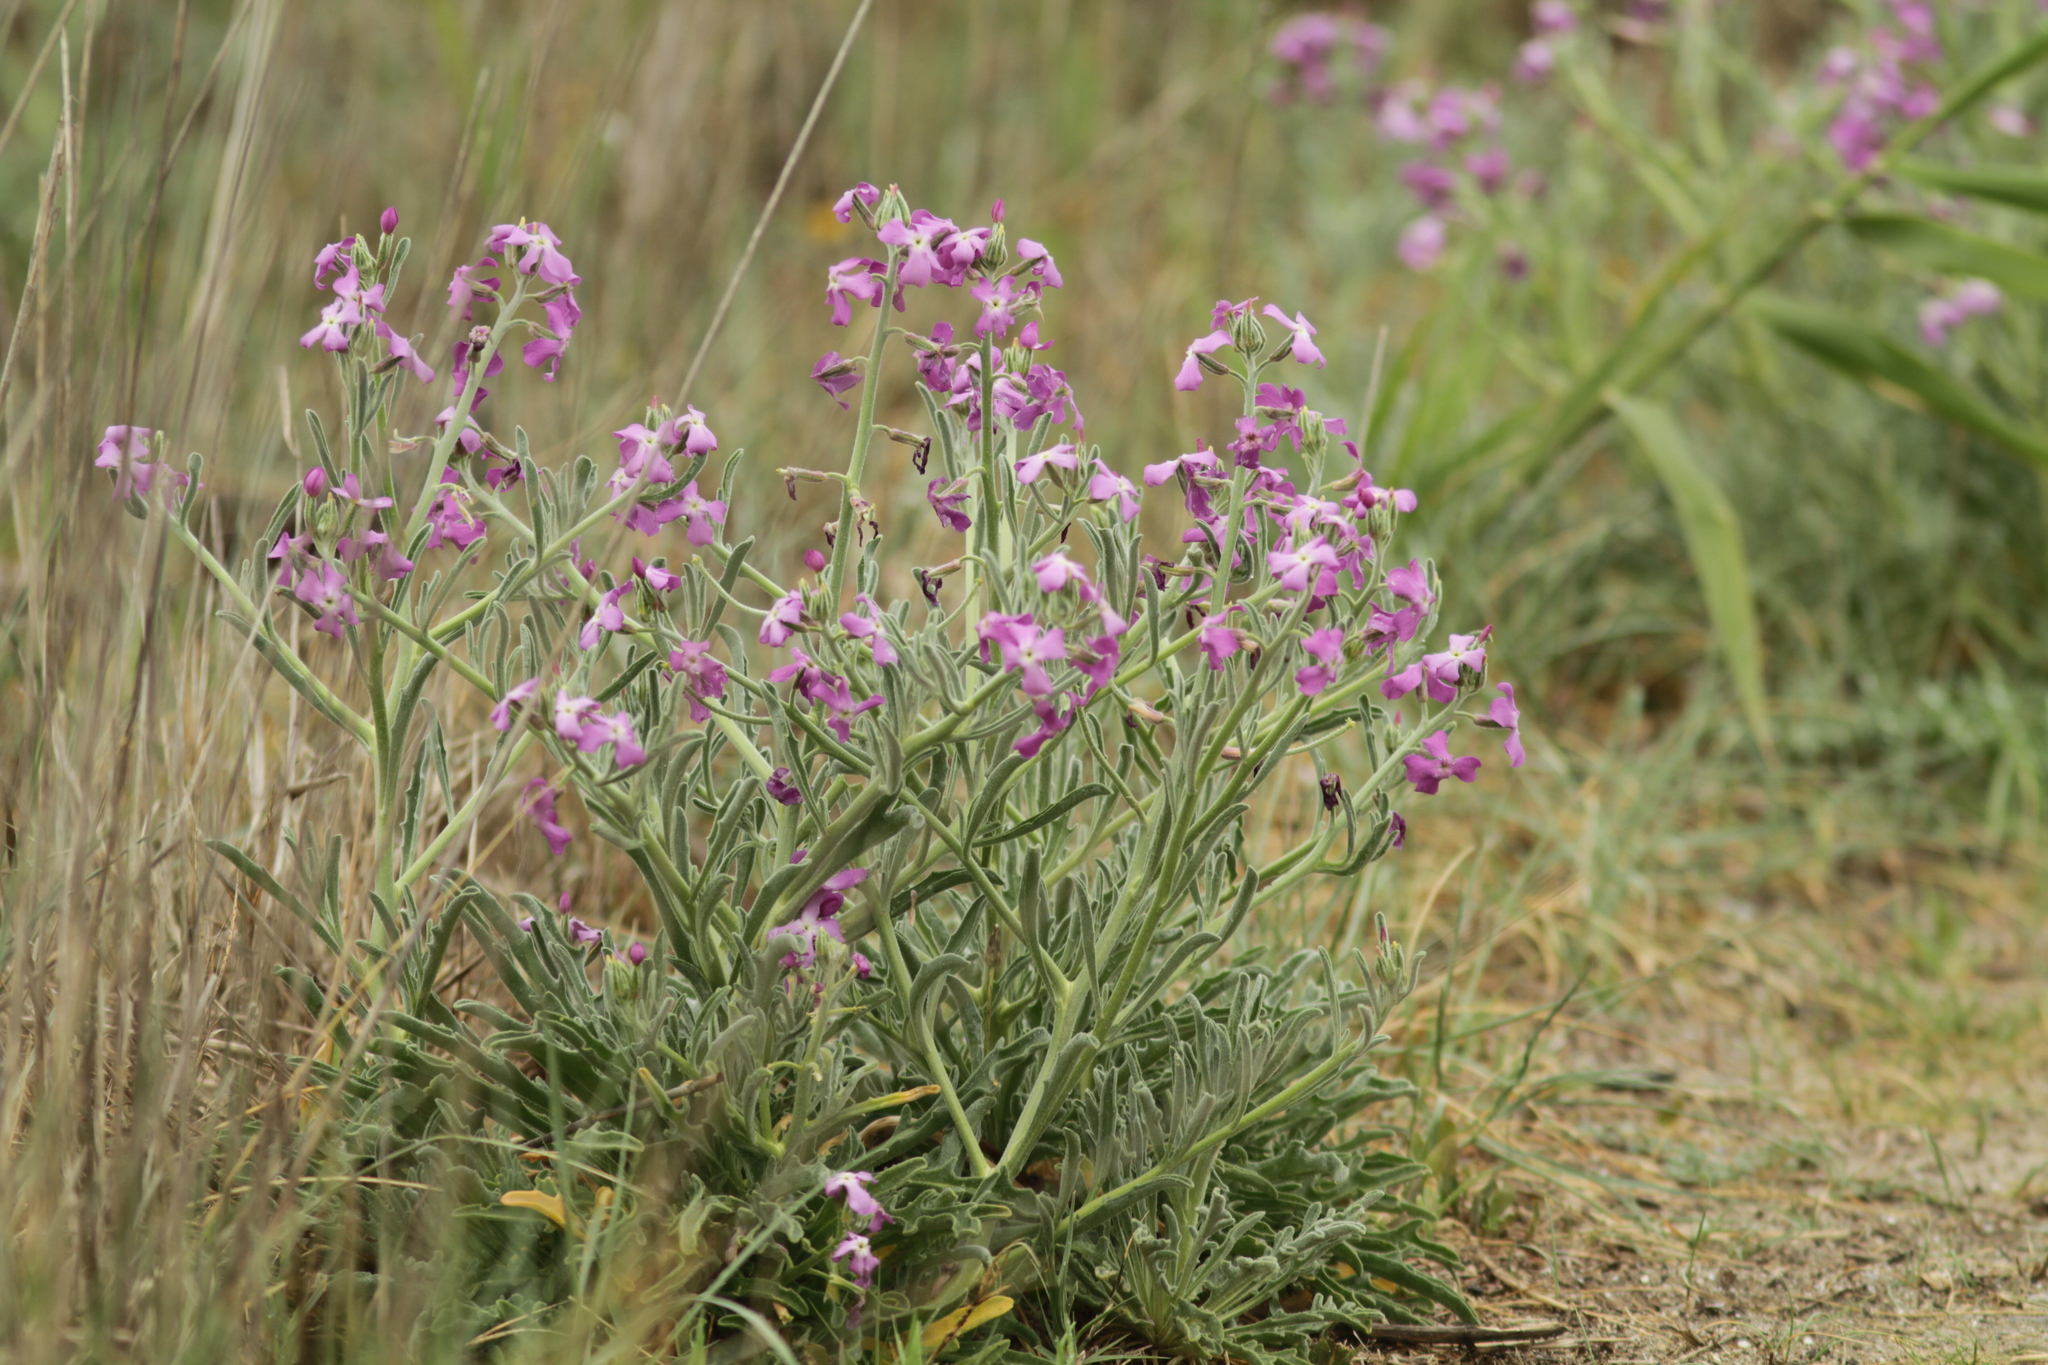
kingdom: Plantae
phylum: Tracheophyta
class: Magnoliopsida
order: Brassicales
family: Brassicaceae
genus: Matthiola
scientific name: Matthiola sinuata
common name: Sea stock
